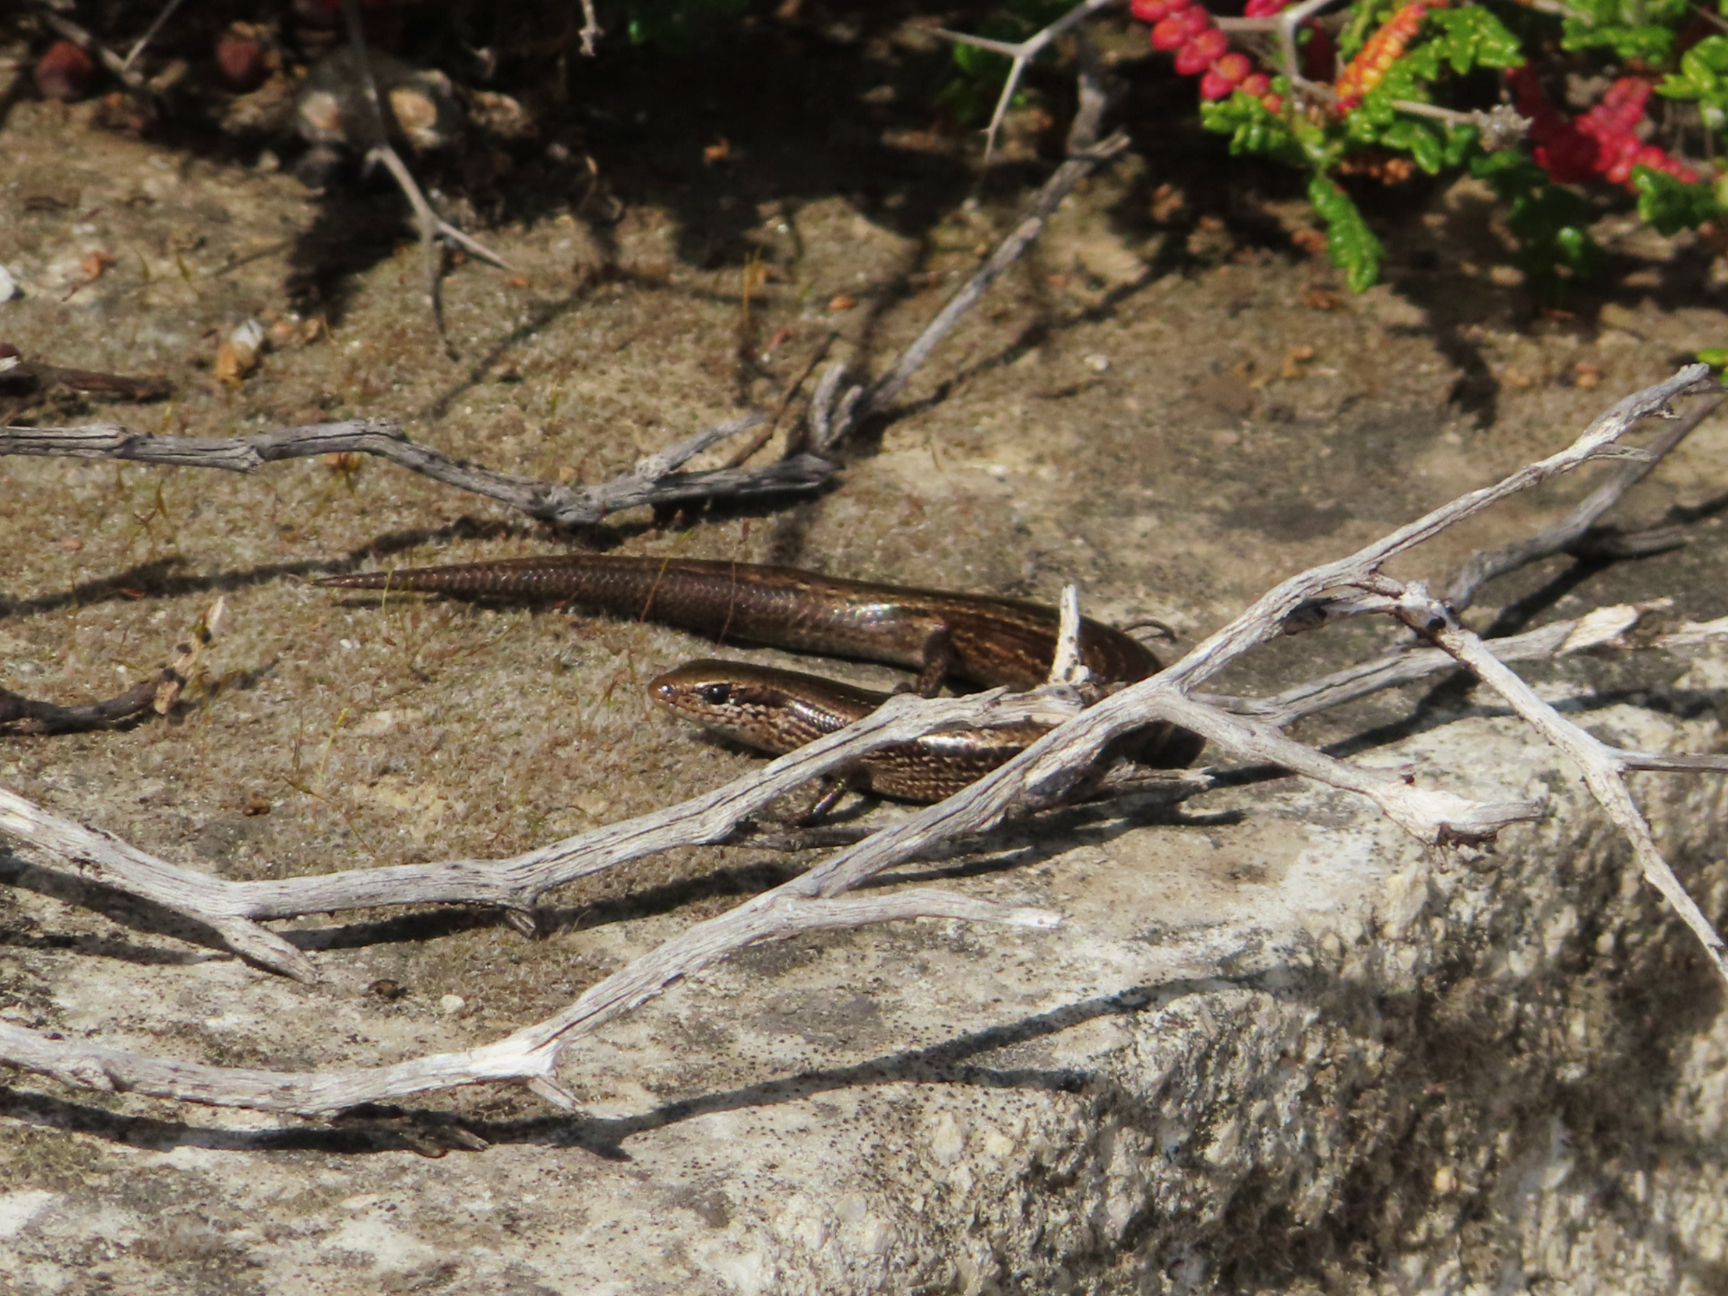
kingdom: Animalia
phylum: Chordata
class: Squamata
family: Scincidae
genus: Ablepharus
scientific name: Ablepharus kitaibelii
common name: Juniper skink
